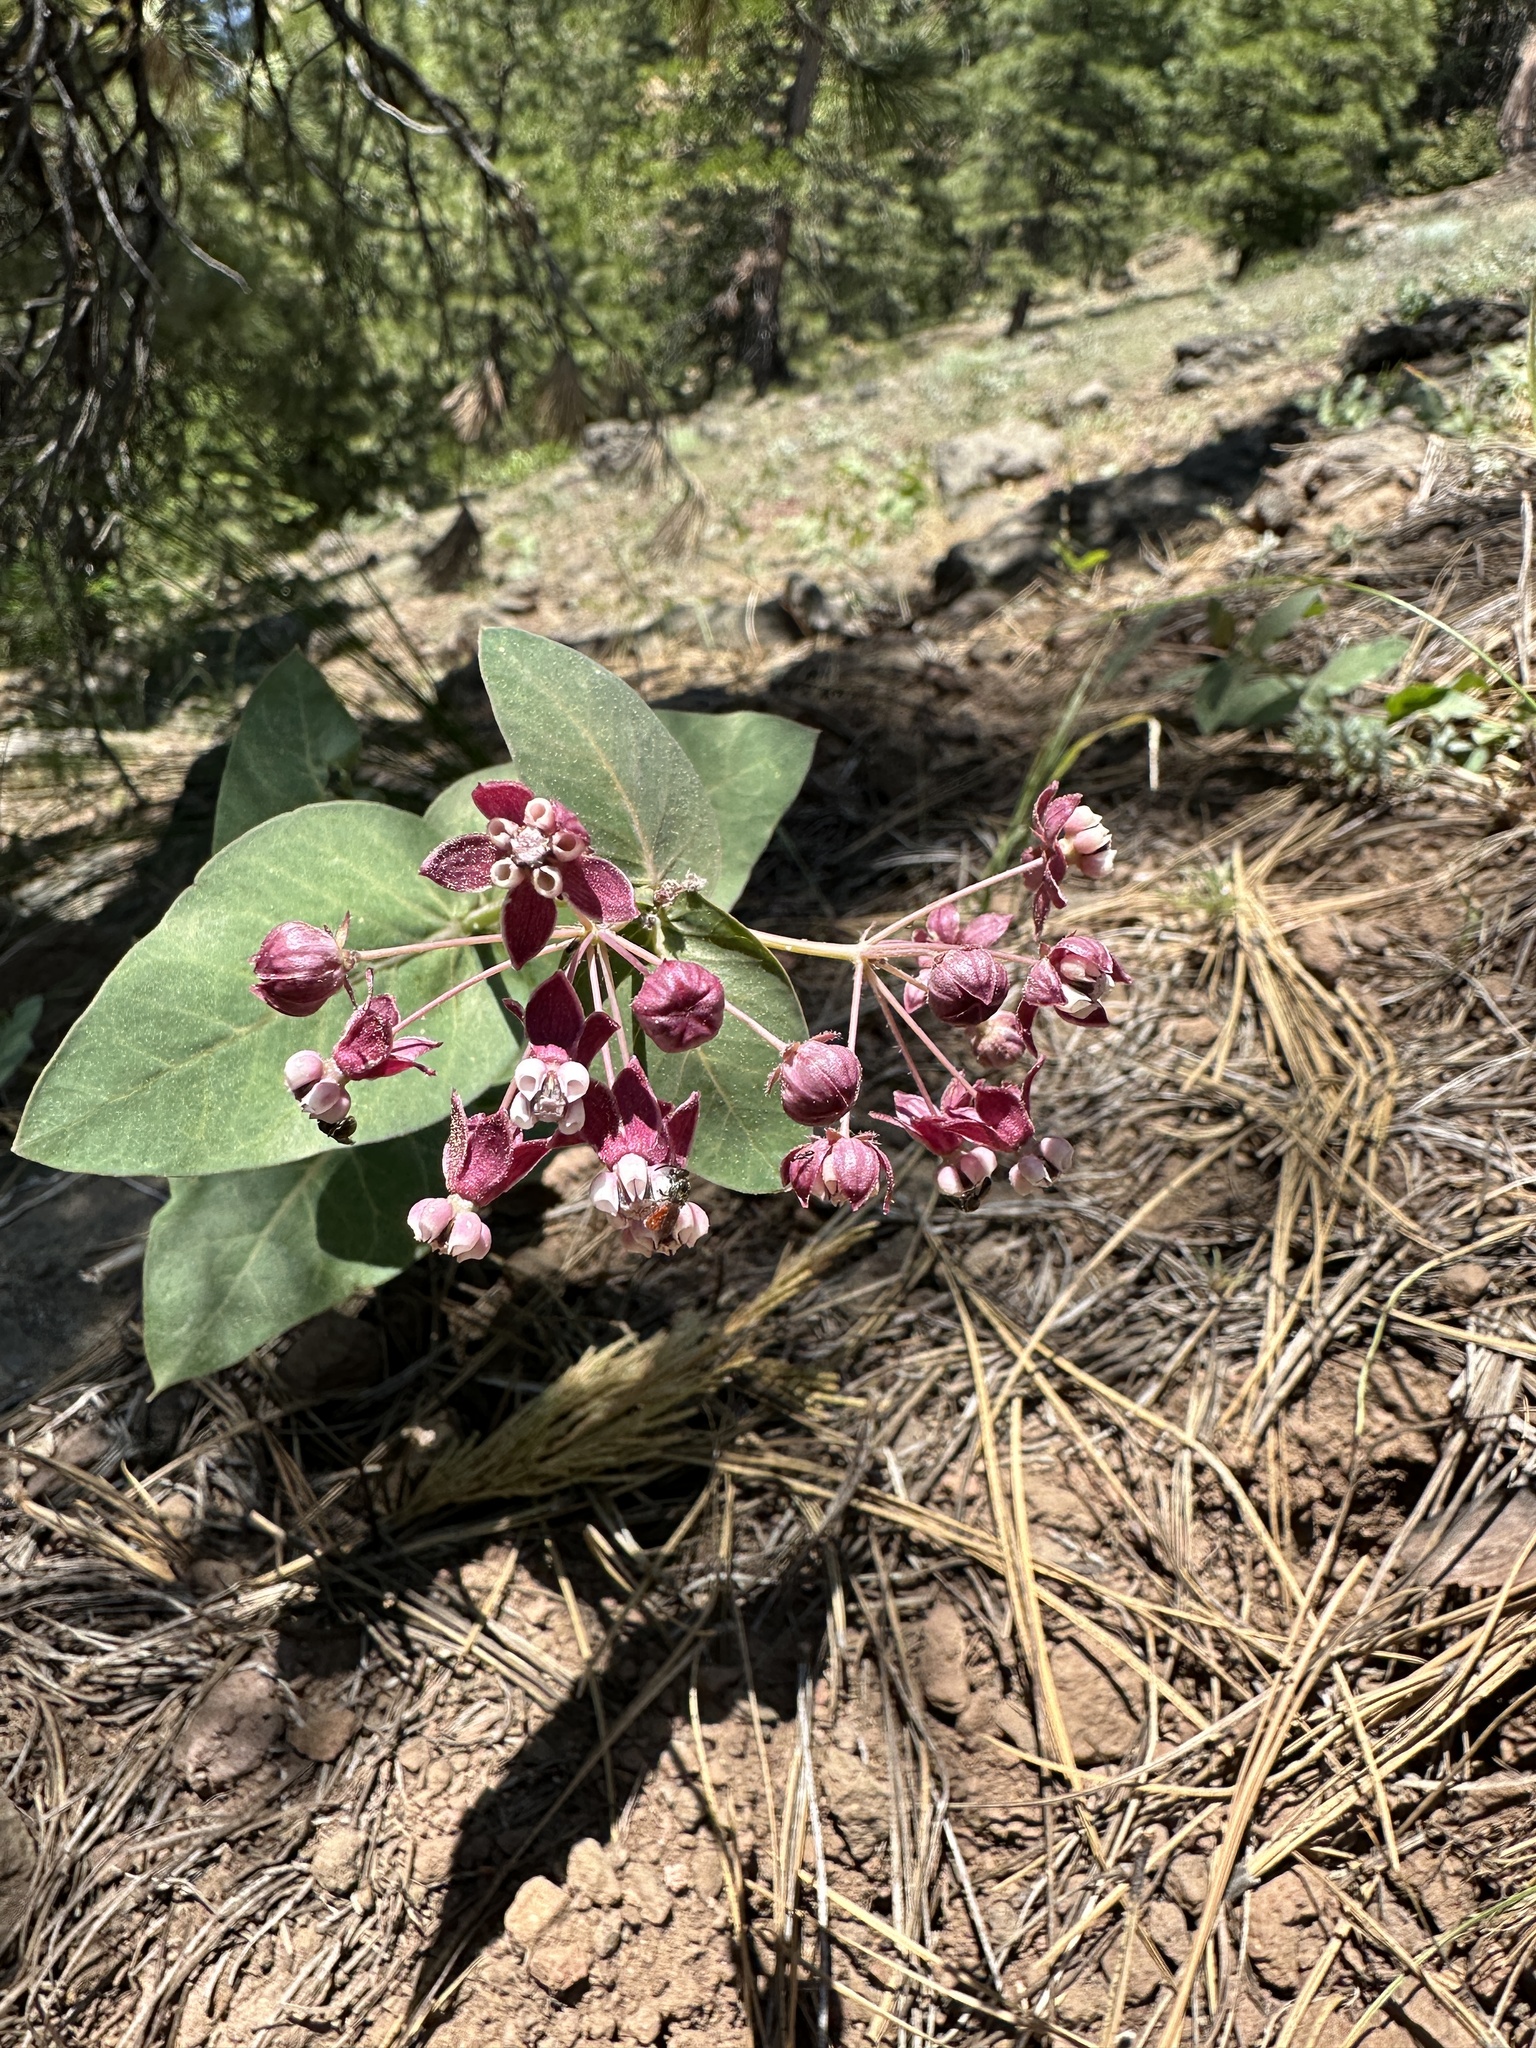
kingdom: Plantae
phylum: Tracheophyta
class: Magnoliopsida
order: Gentianales
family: Apocynaceae
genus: Asclepias
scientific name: Asclepias cordifolia
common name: Purple milkweed
